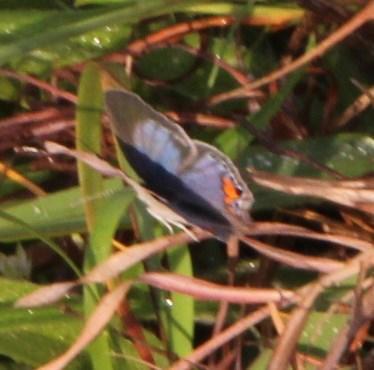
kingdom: Animalia
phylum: Arthropoda
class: Insecta
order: Lepidoptera
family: Lycaenidae
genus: Cupido
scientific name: Cupido cissus
